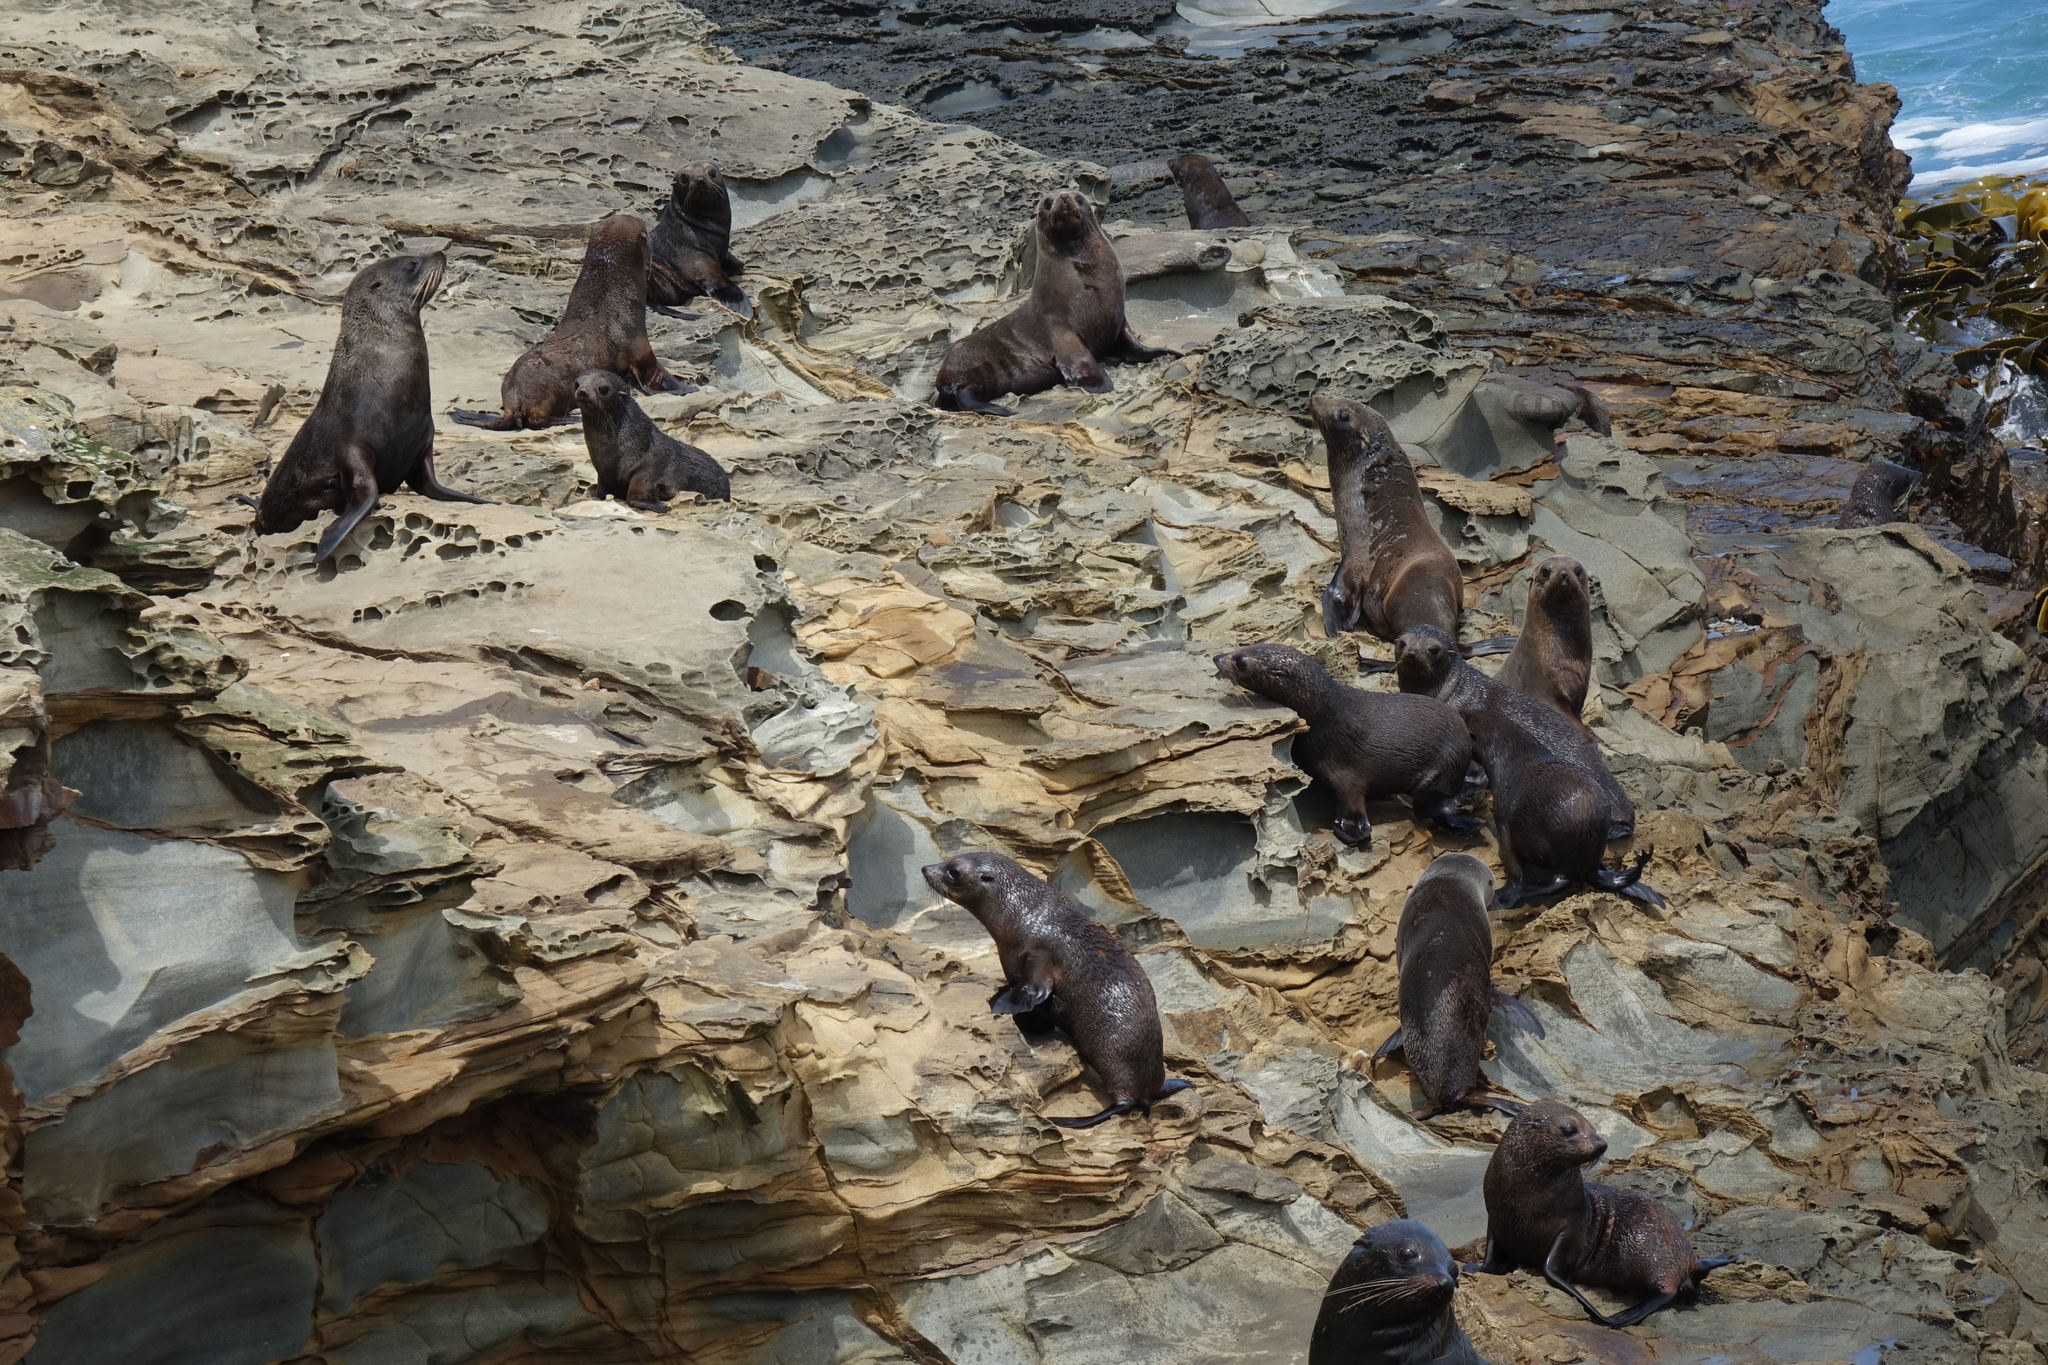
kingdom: Animalia
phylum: Chordata
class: Mammalia
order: Carnivora
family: Otariidae
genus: Arctocephalus
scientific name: Arctocephalus forsteri
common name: New zealand fur seal
